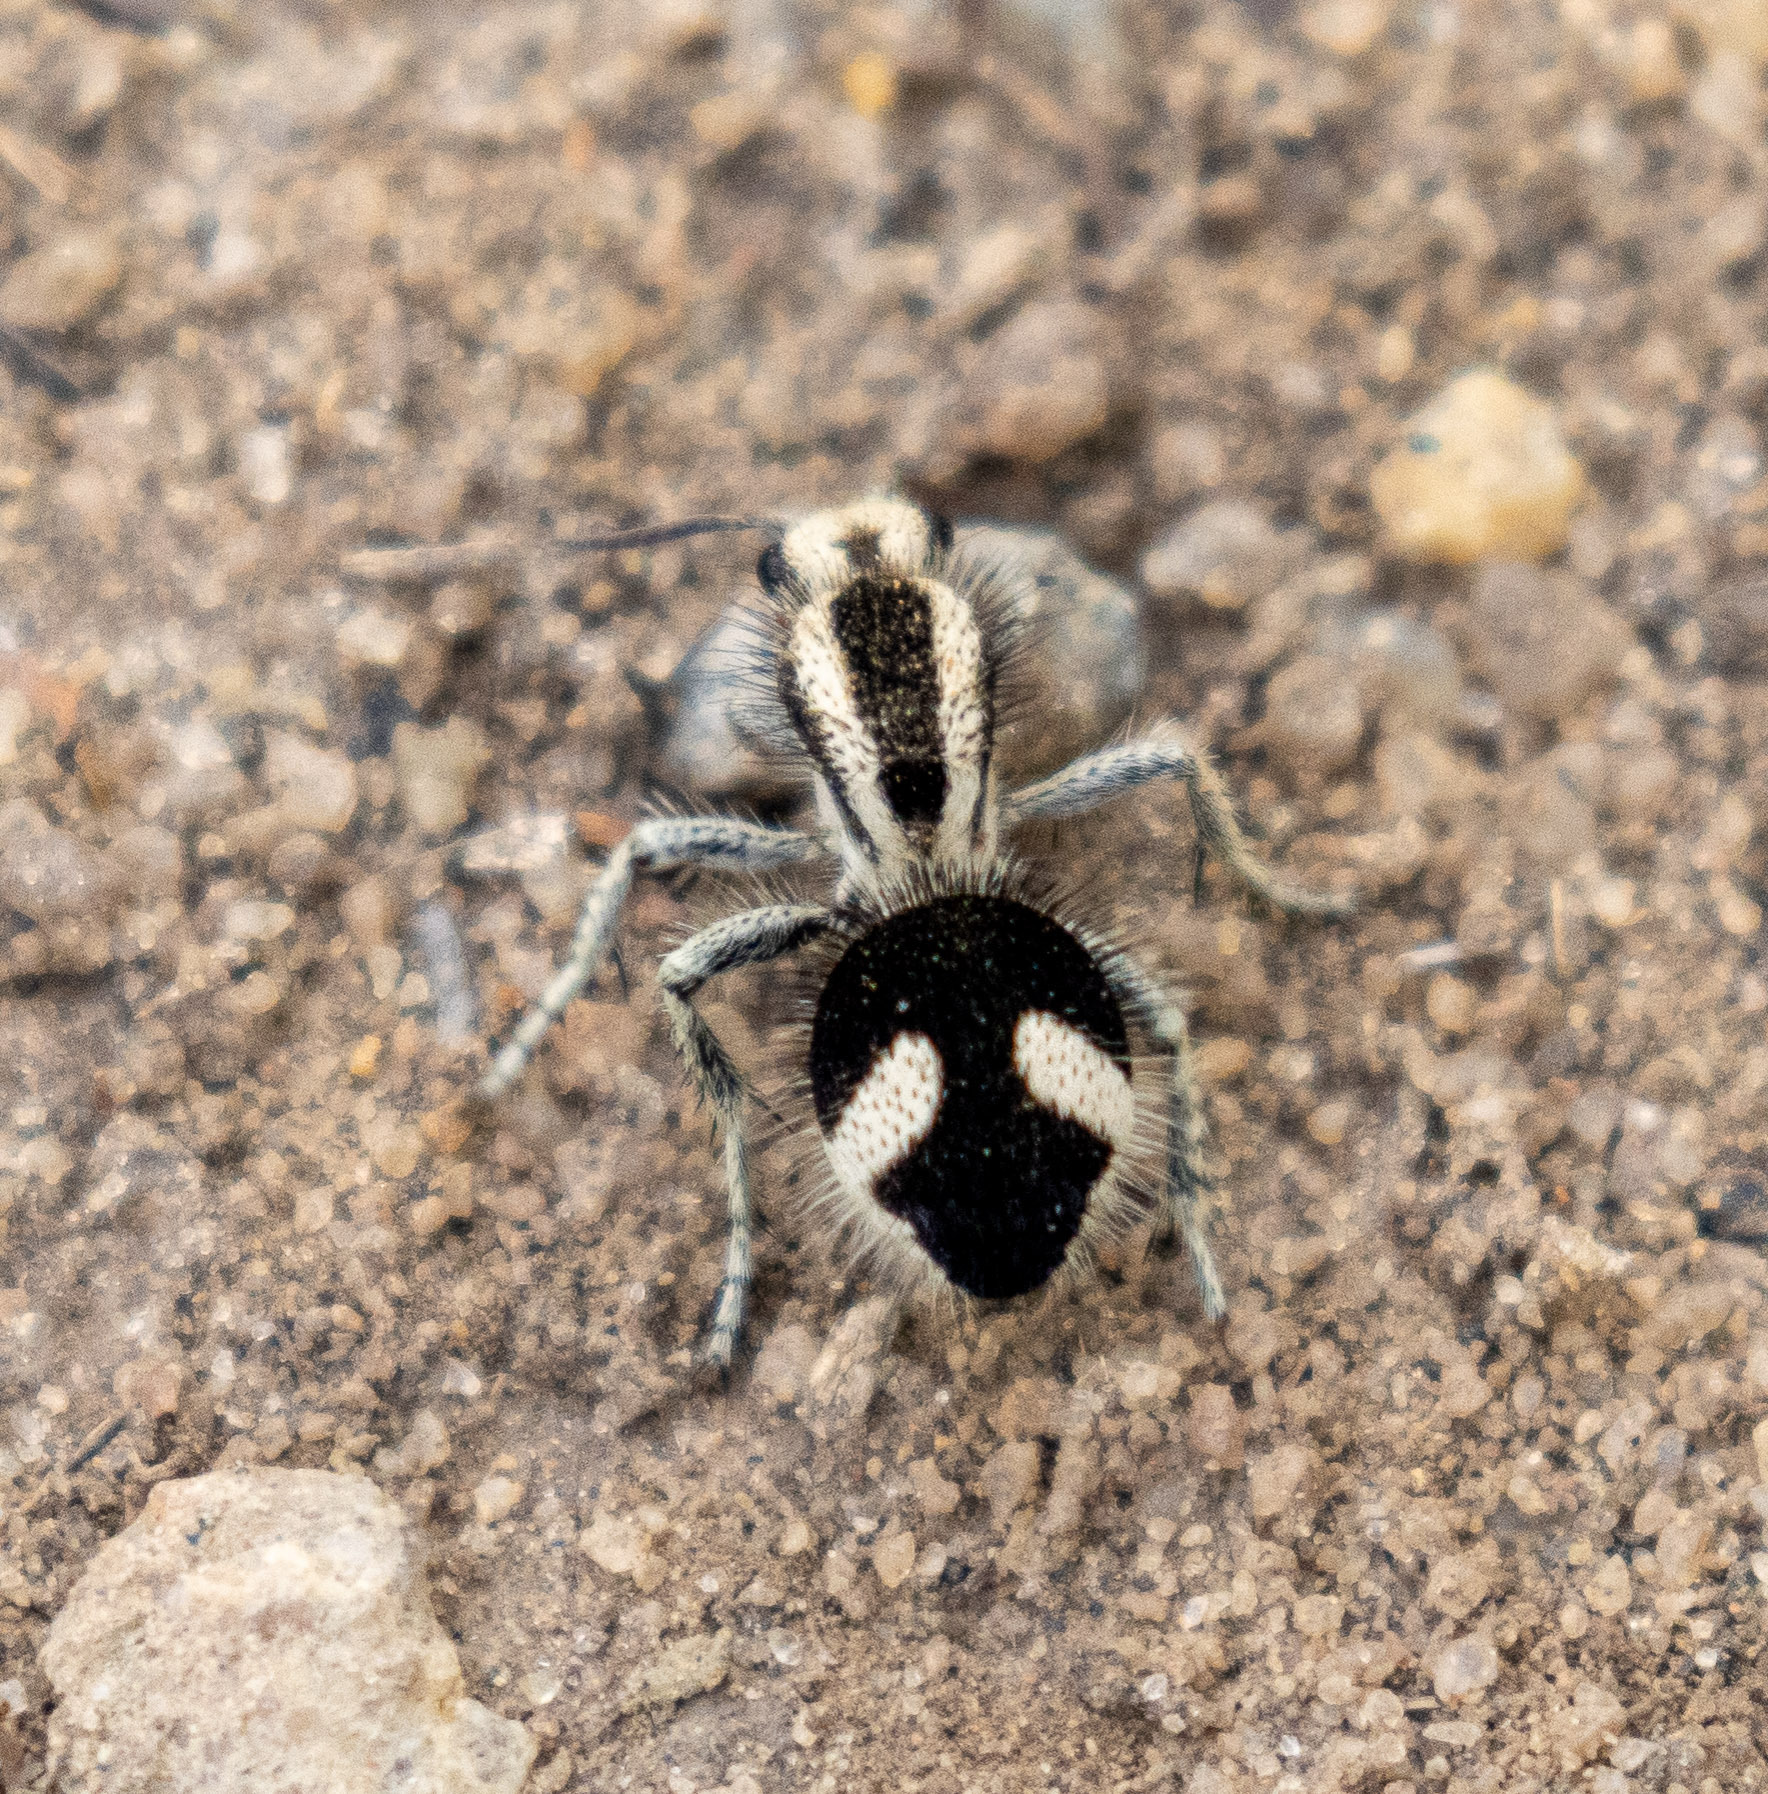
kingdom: Animalia
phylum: Arthropoda
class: Insecta
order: Hymenoptera
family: Mutillidae
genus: Suareztilla
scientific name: Suareztilla
